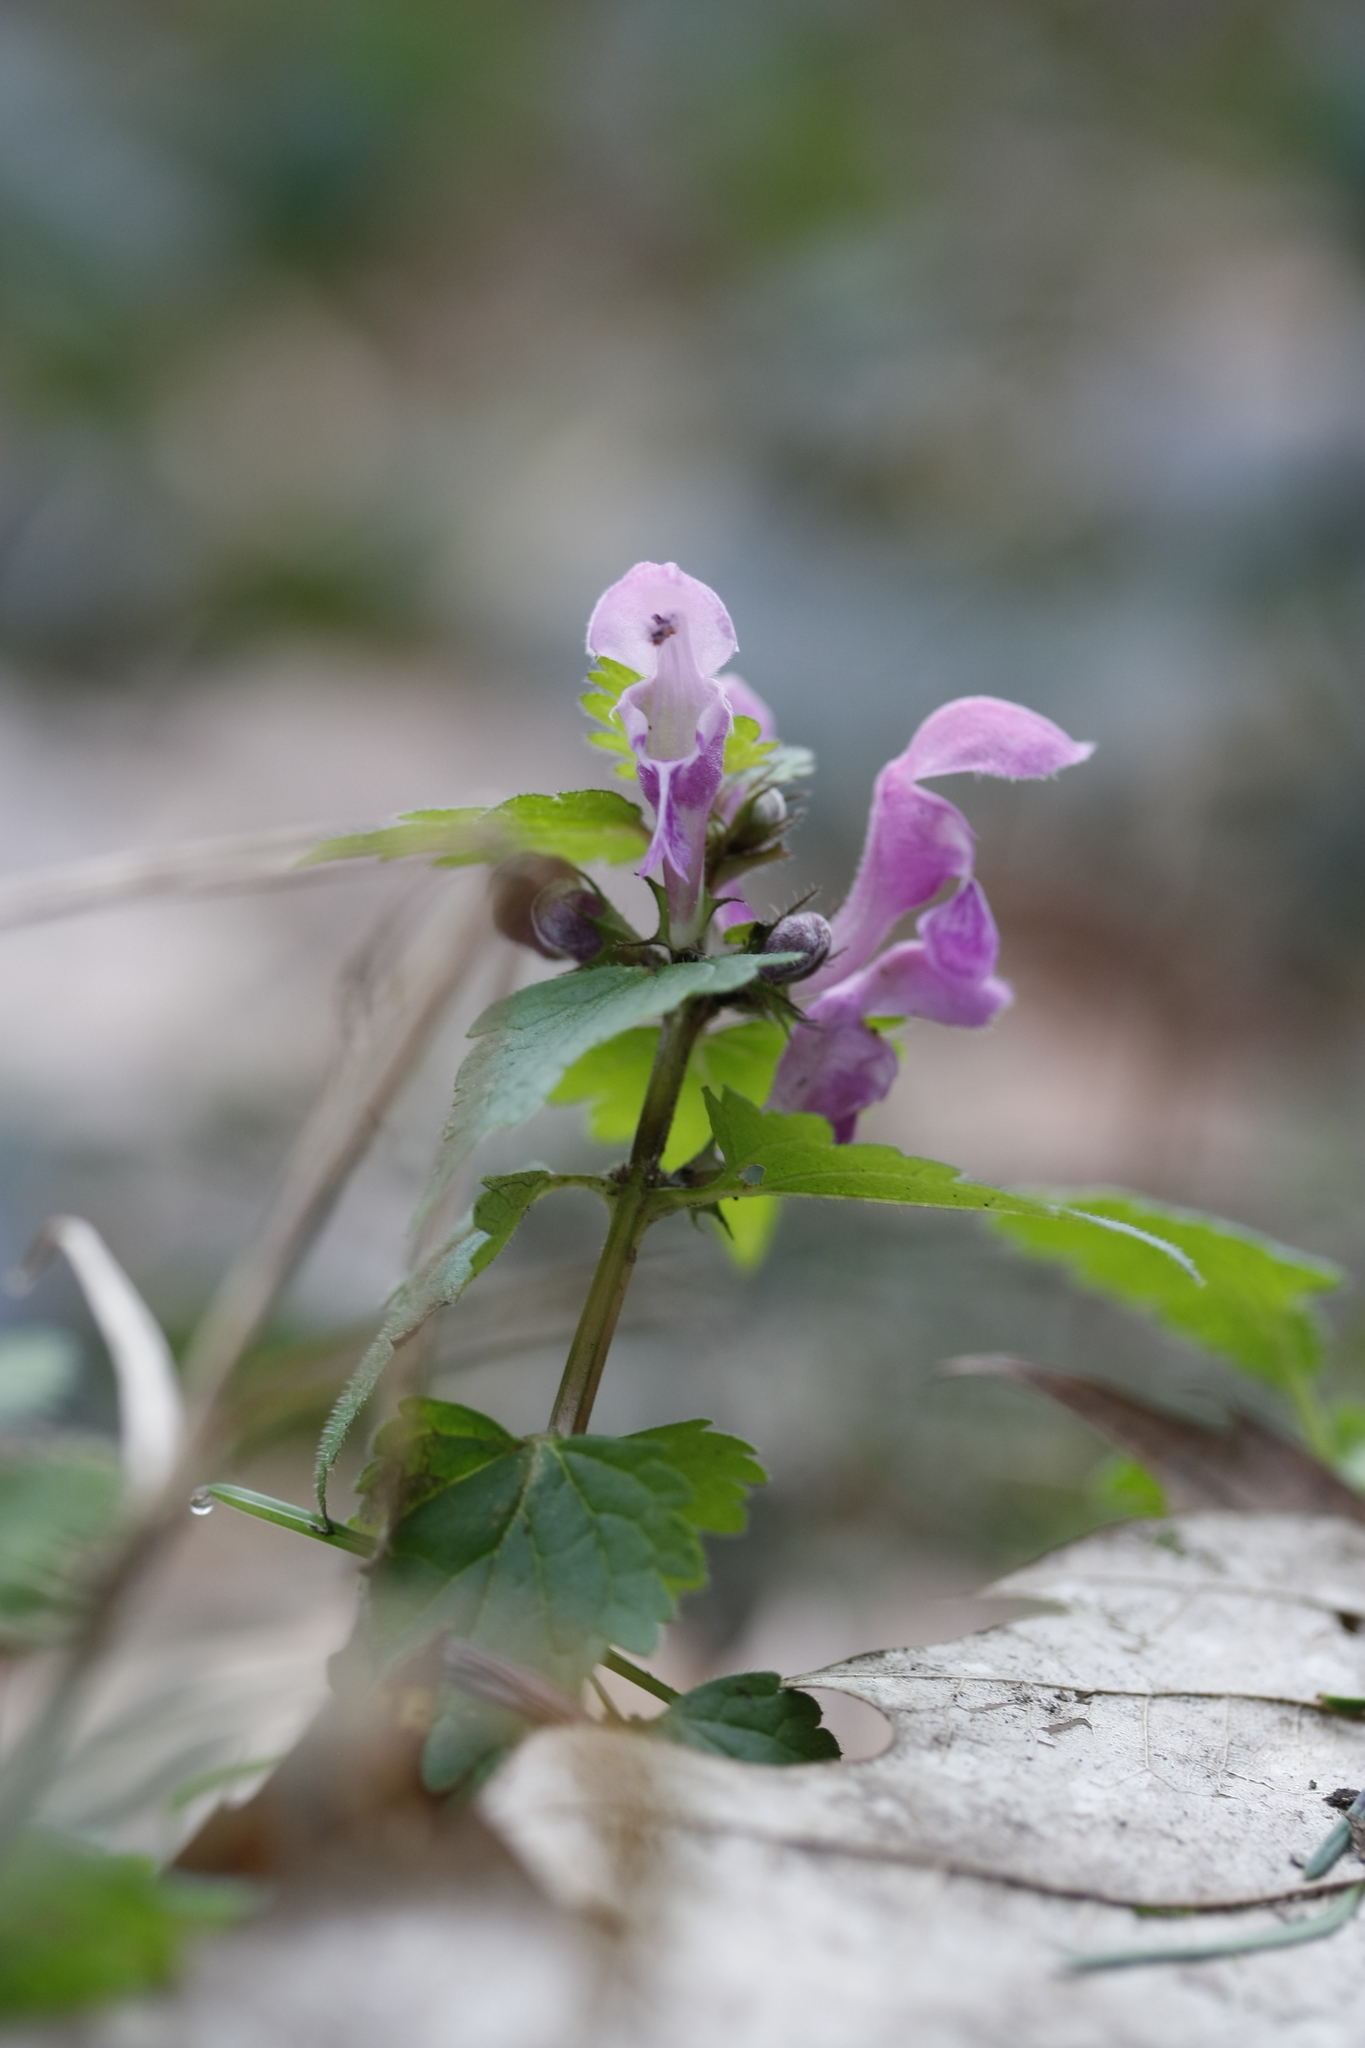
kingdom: Plantae
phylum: Tracheophyta
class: Magnoliopsida
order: Lamiales
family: Lamiaceae
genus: Lamium
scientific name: Lamium maculatum
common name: Spotted dead-nettle
